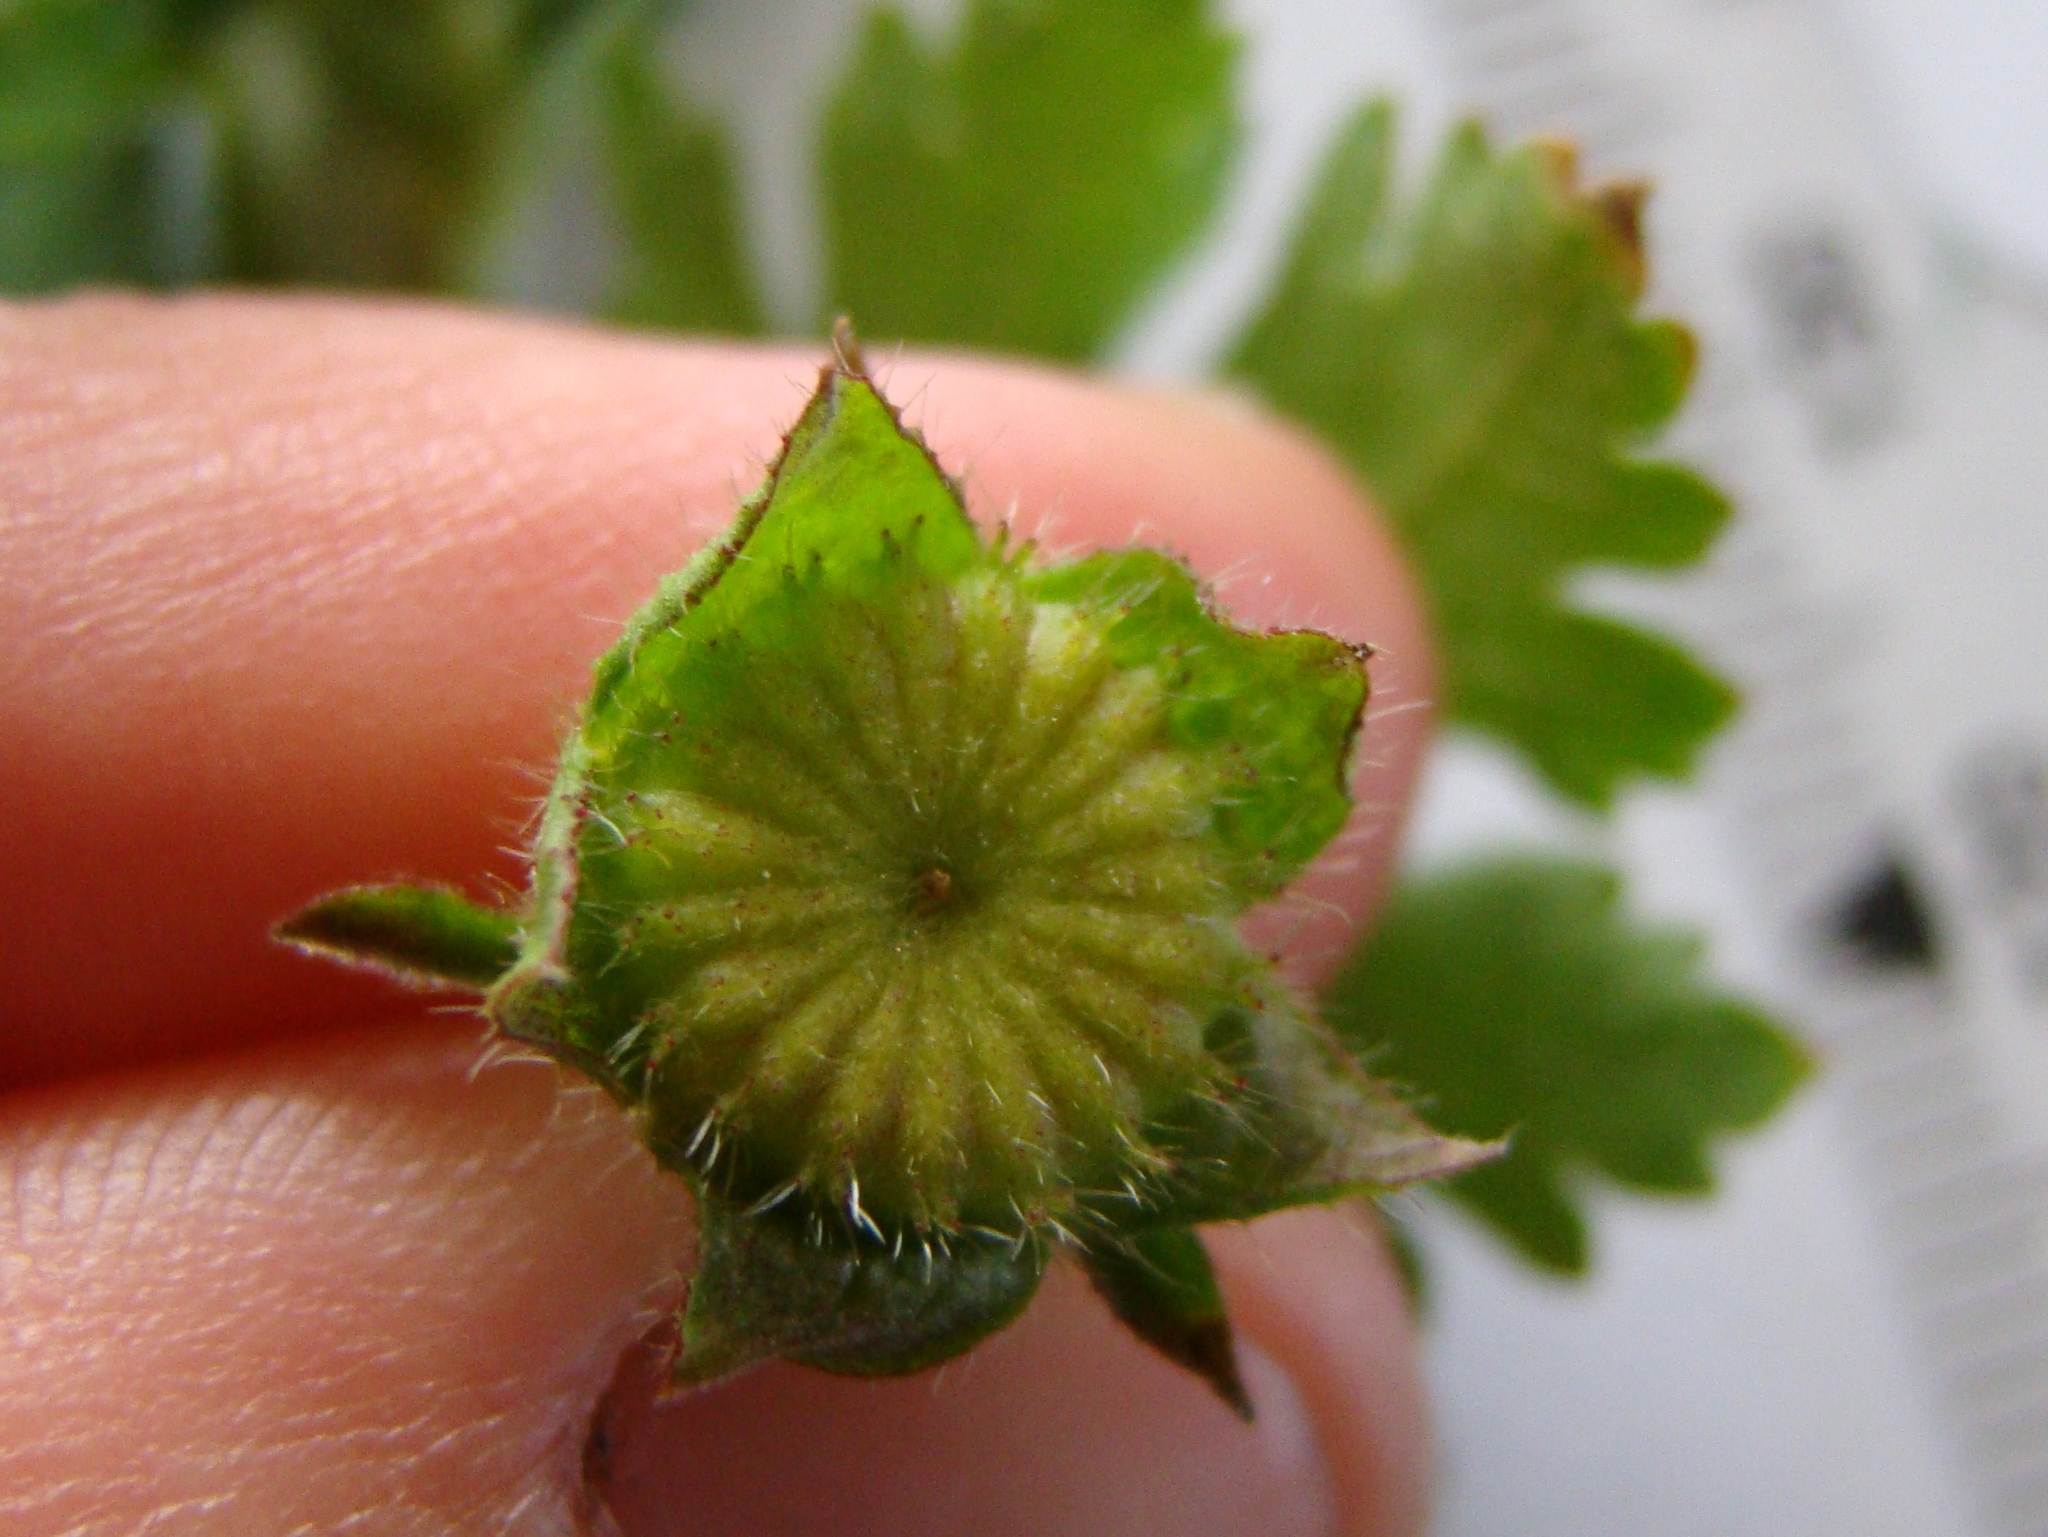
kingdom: Plantae
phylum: Tracheophyta
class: Magnoliopsida
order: Malvales
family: Malvaceae
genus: Modiola
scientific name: Modiola caroliniana
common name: Carolina bristlemallow
